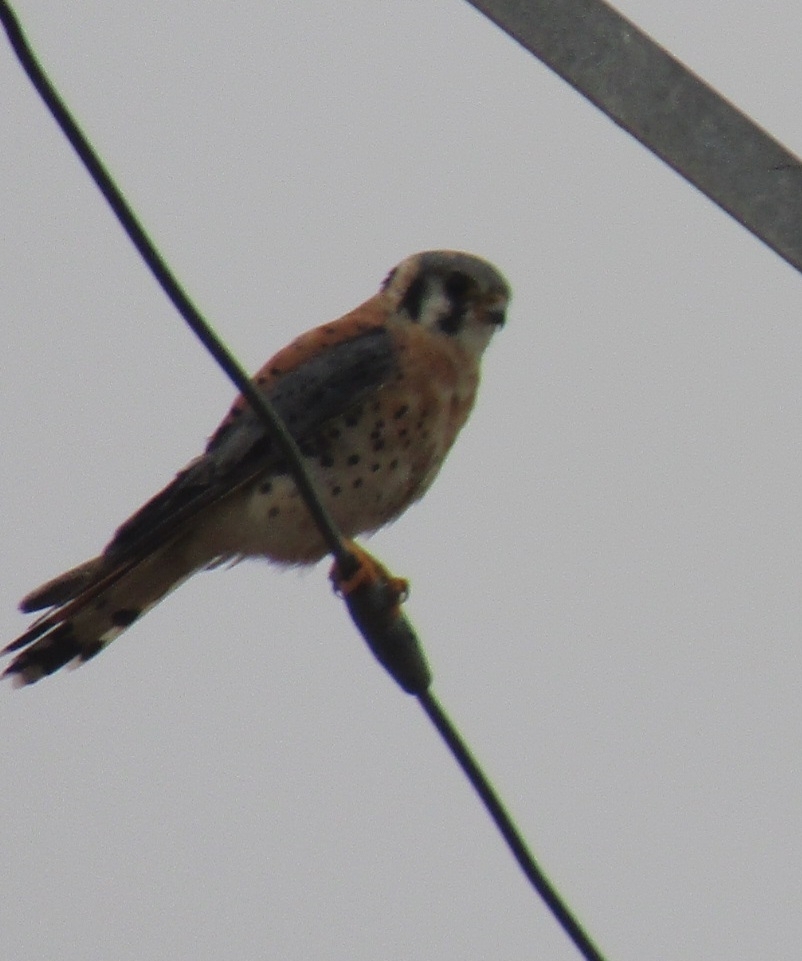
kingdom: Animalia
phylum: Chordata
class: Aves
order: Falconiformes
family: Falconidae
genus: Falco
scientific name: Falco sparverius
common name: American kestrel
